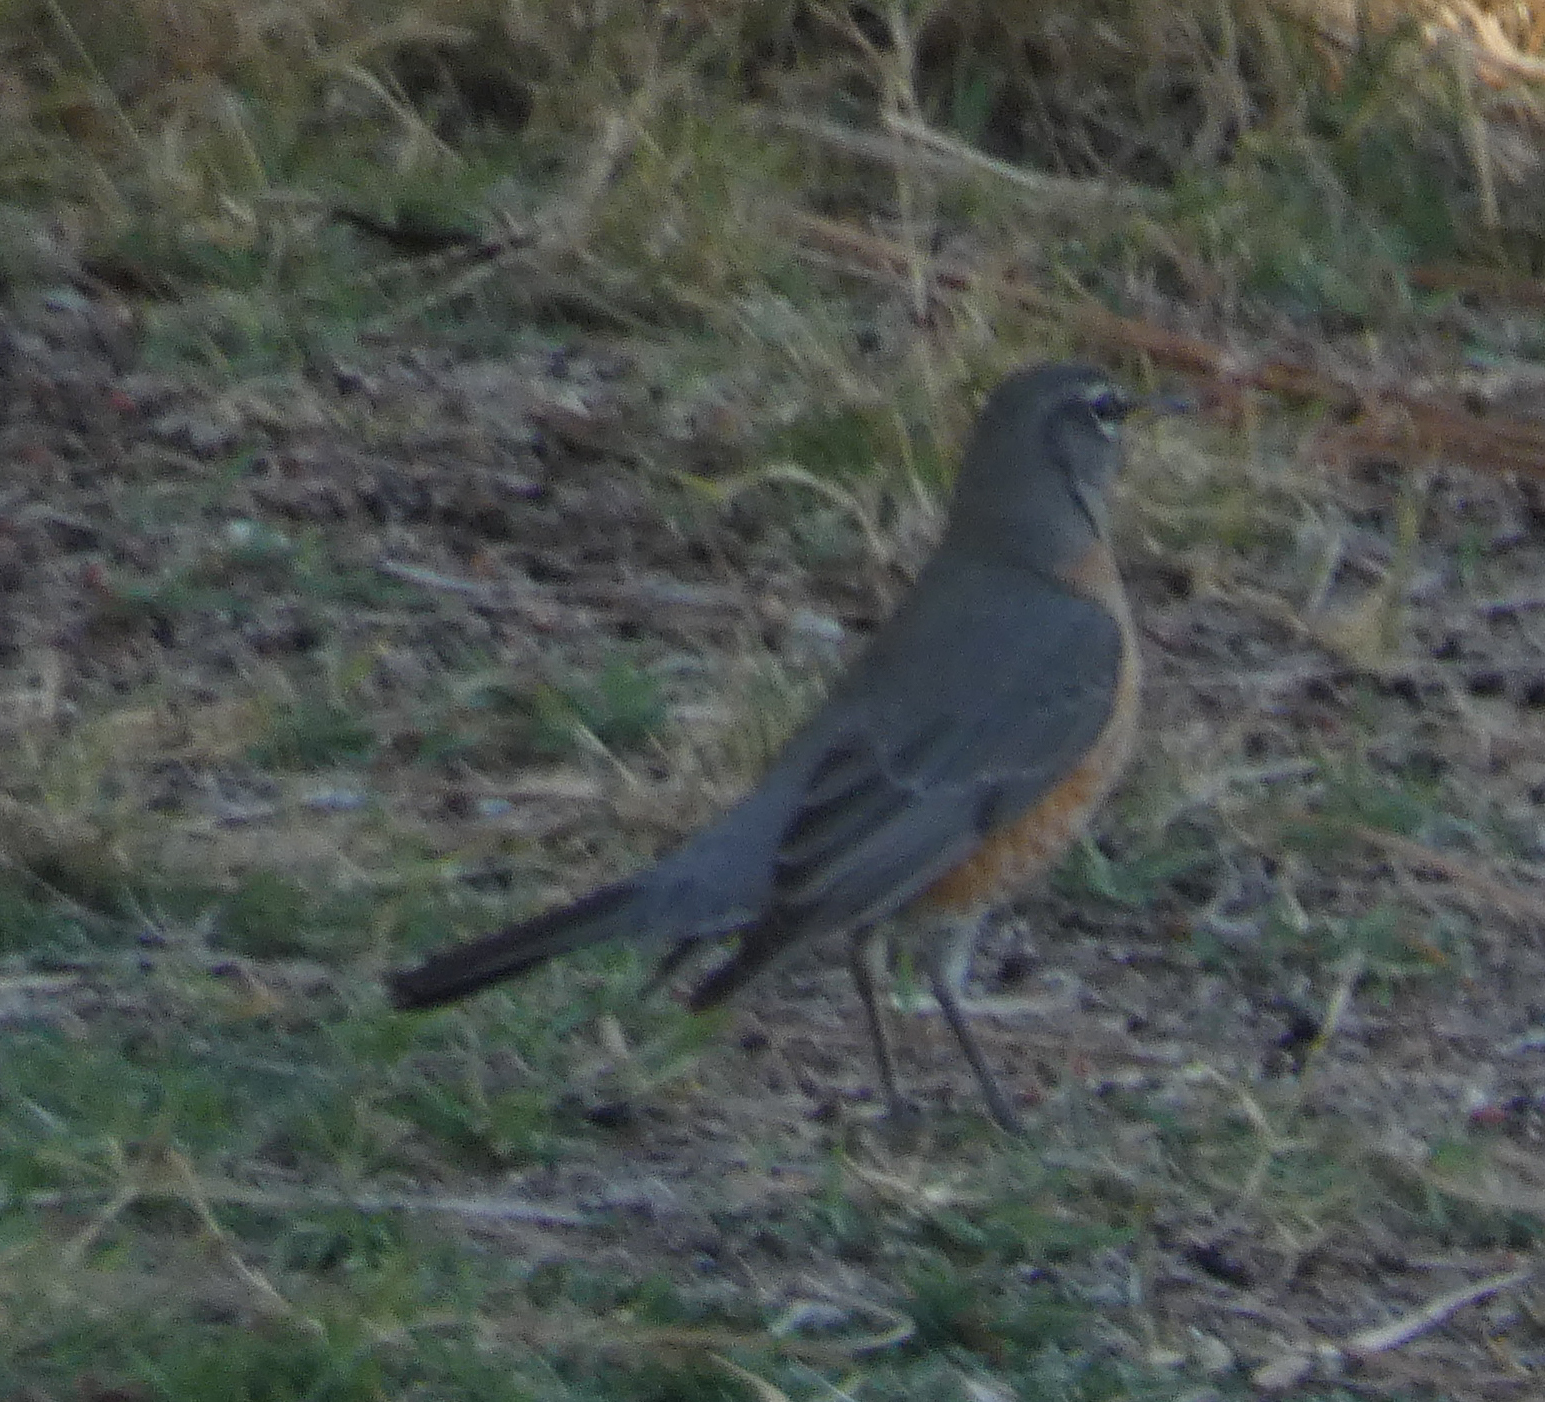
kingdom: Animalia
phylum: Chordata
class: Aves
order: Passeriformes
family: Turdidae
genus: Turdus
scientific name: Turdus migratorius
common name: American robin
